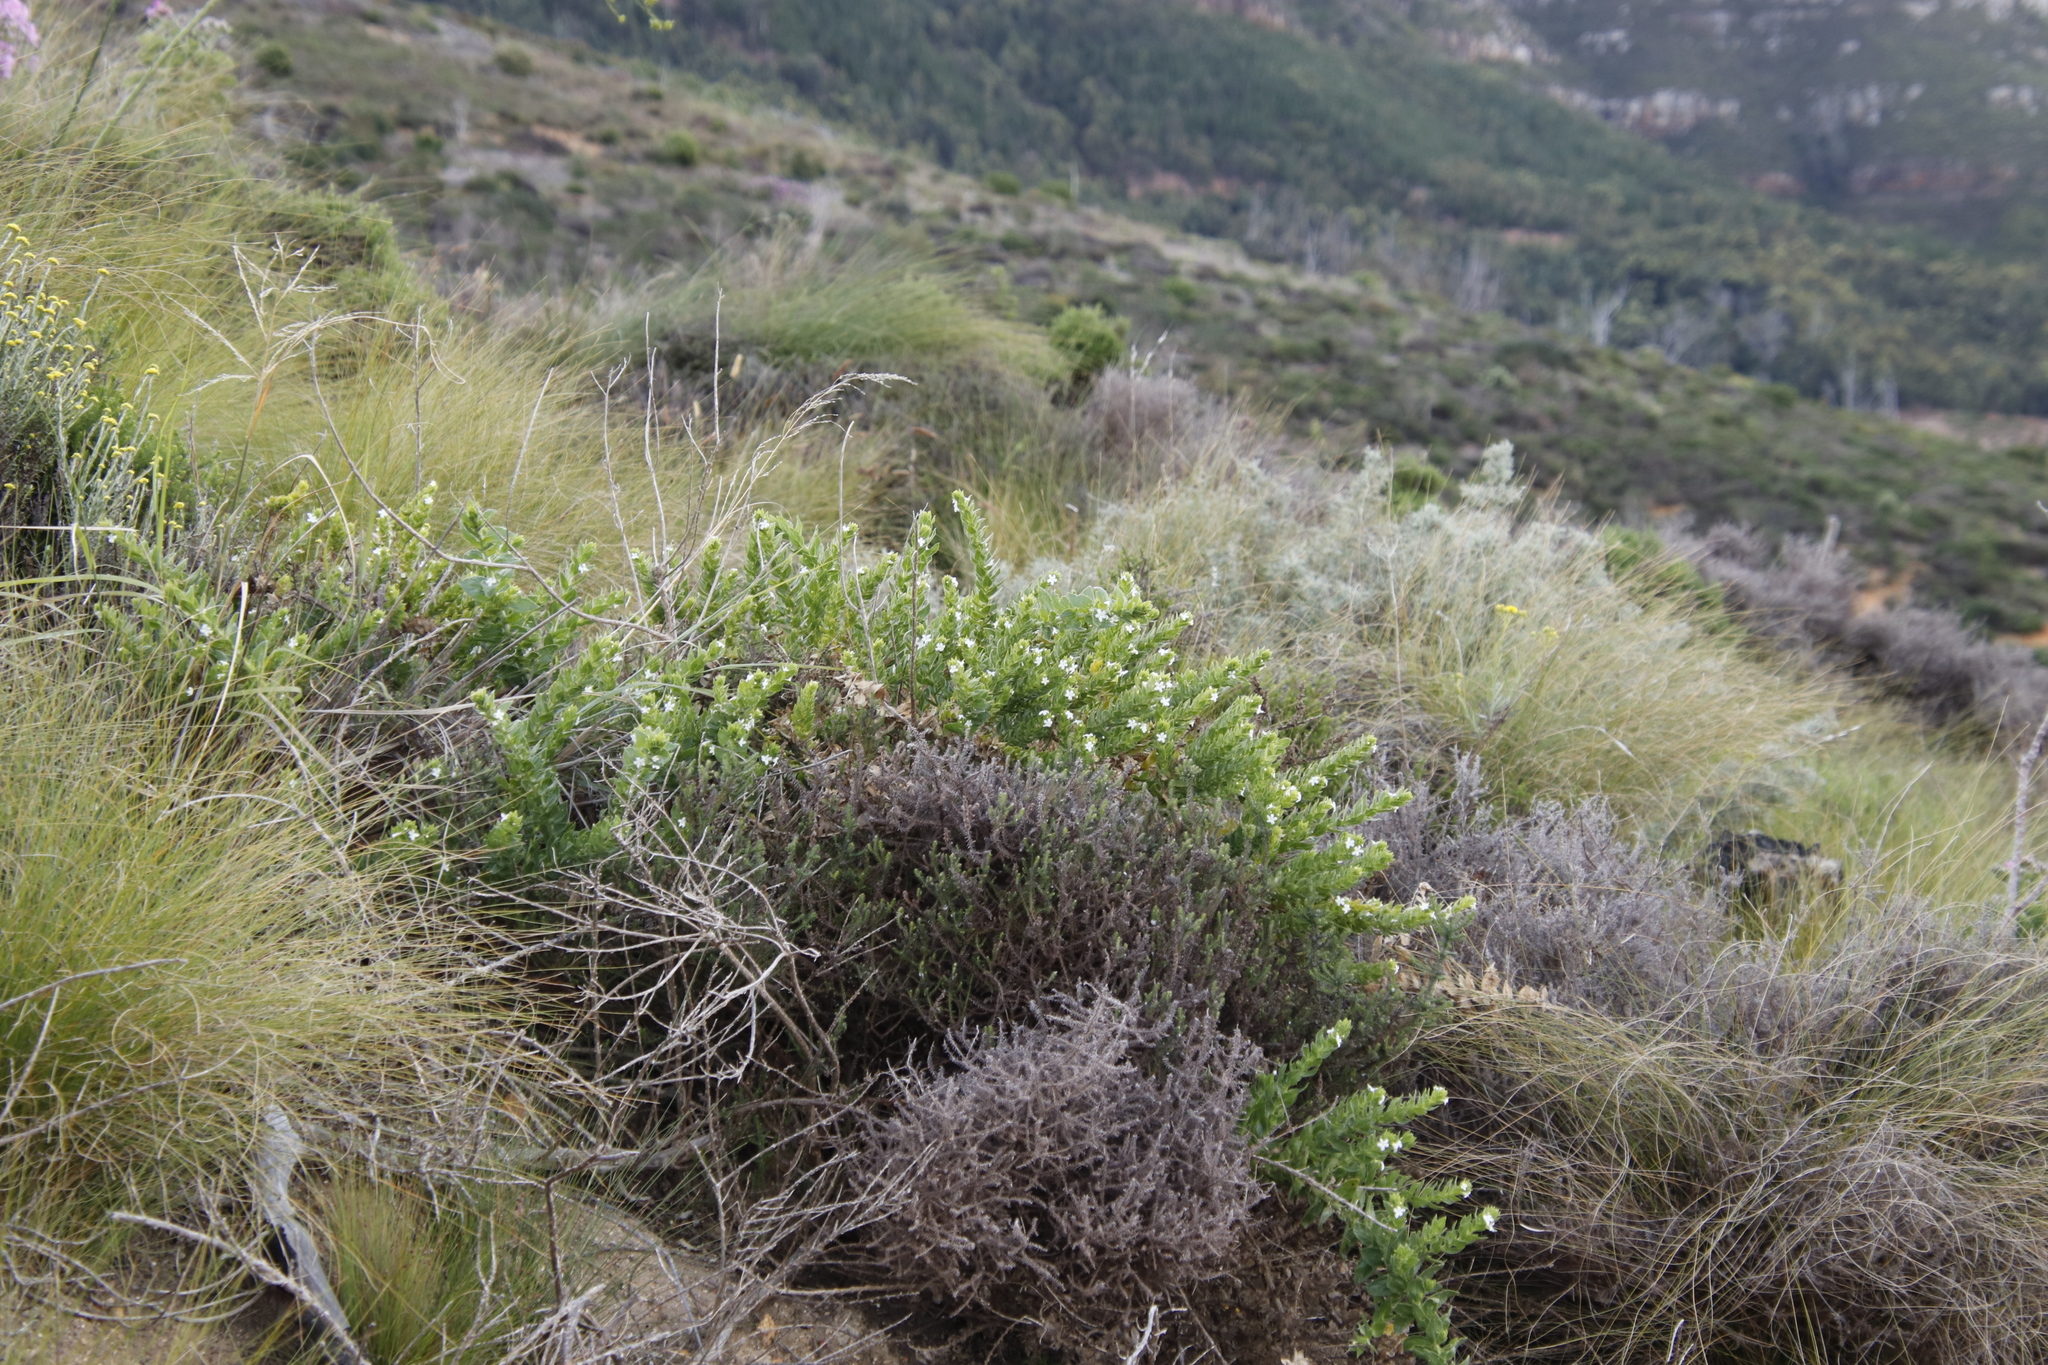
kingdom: Plantae
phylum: Tracheophyta
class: Magnoliopsida
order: Lamiales
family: Scrophulariaceae
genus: Oftia
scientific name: Oftia africana
